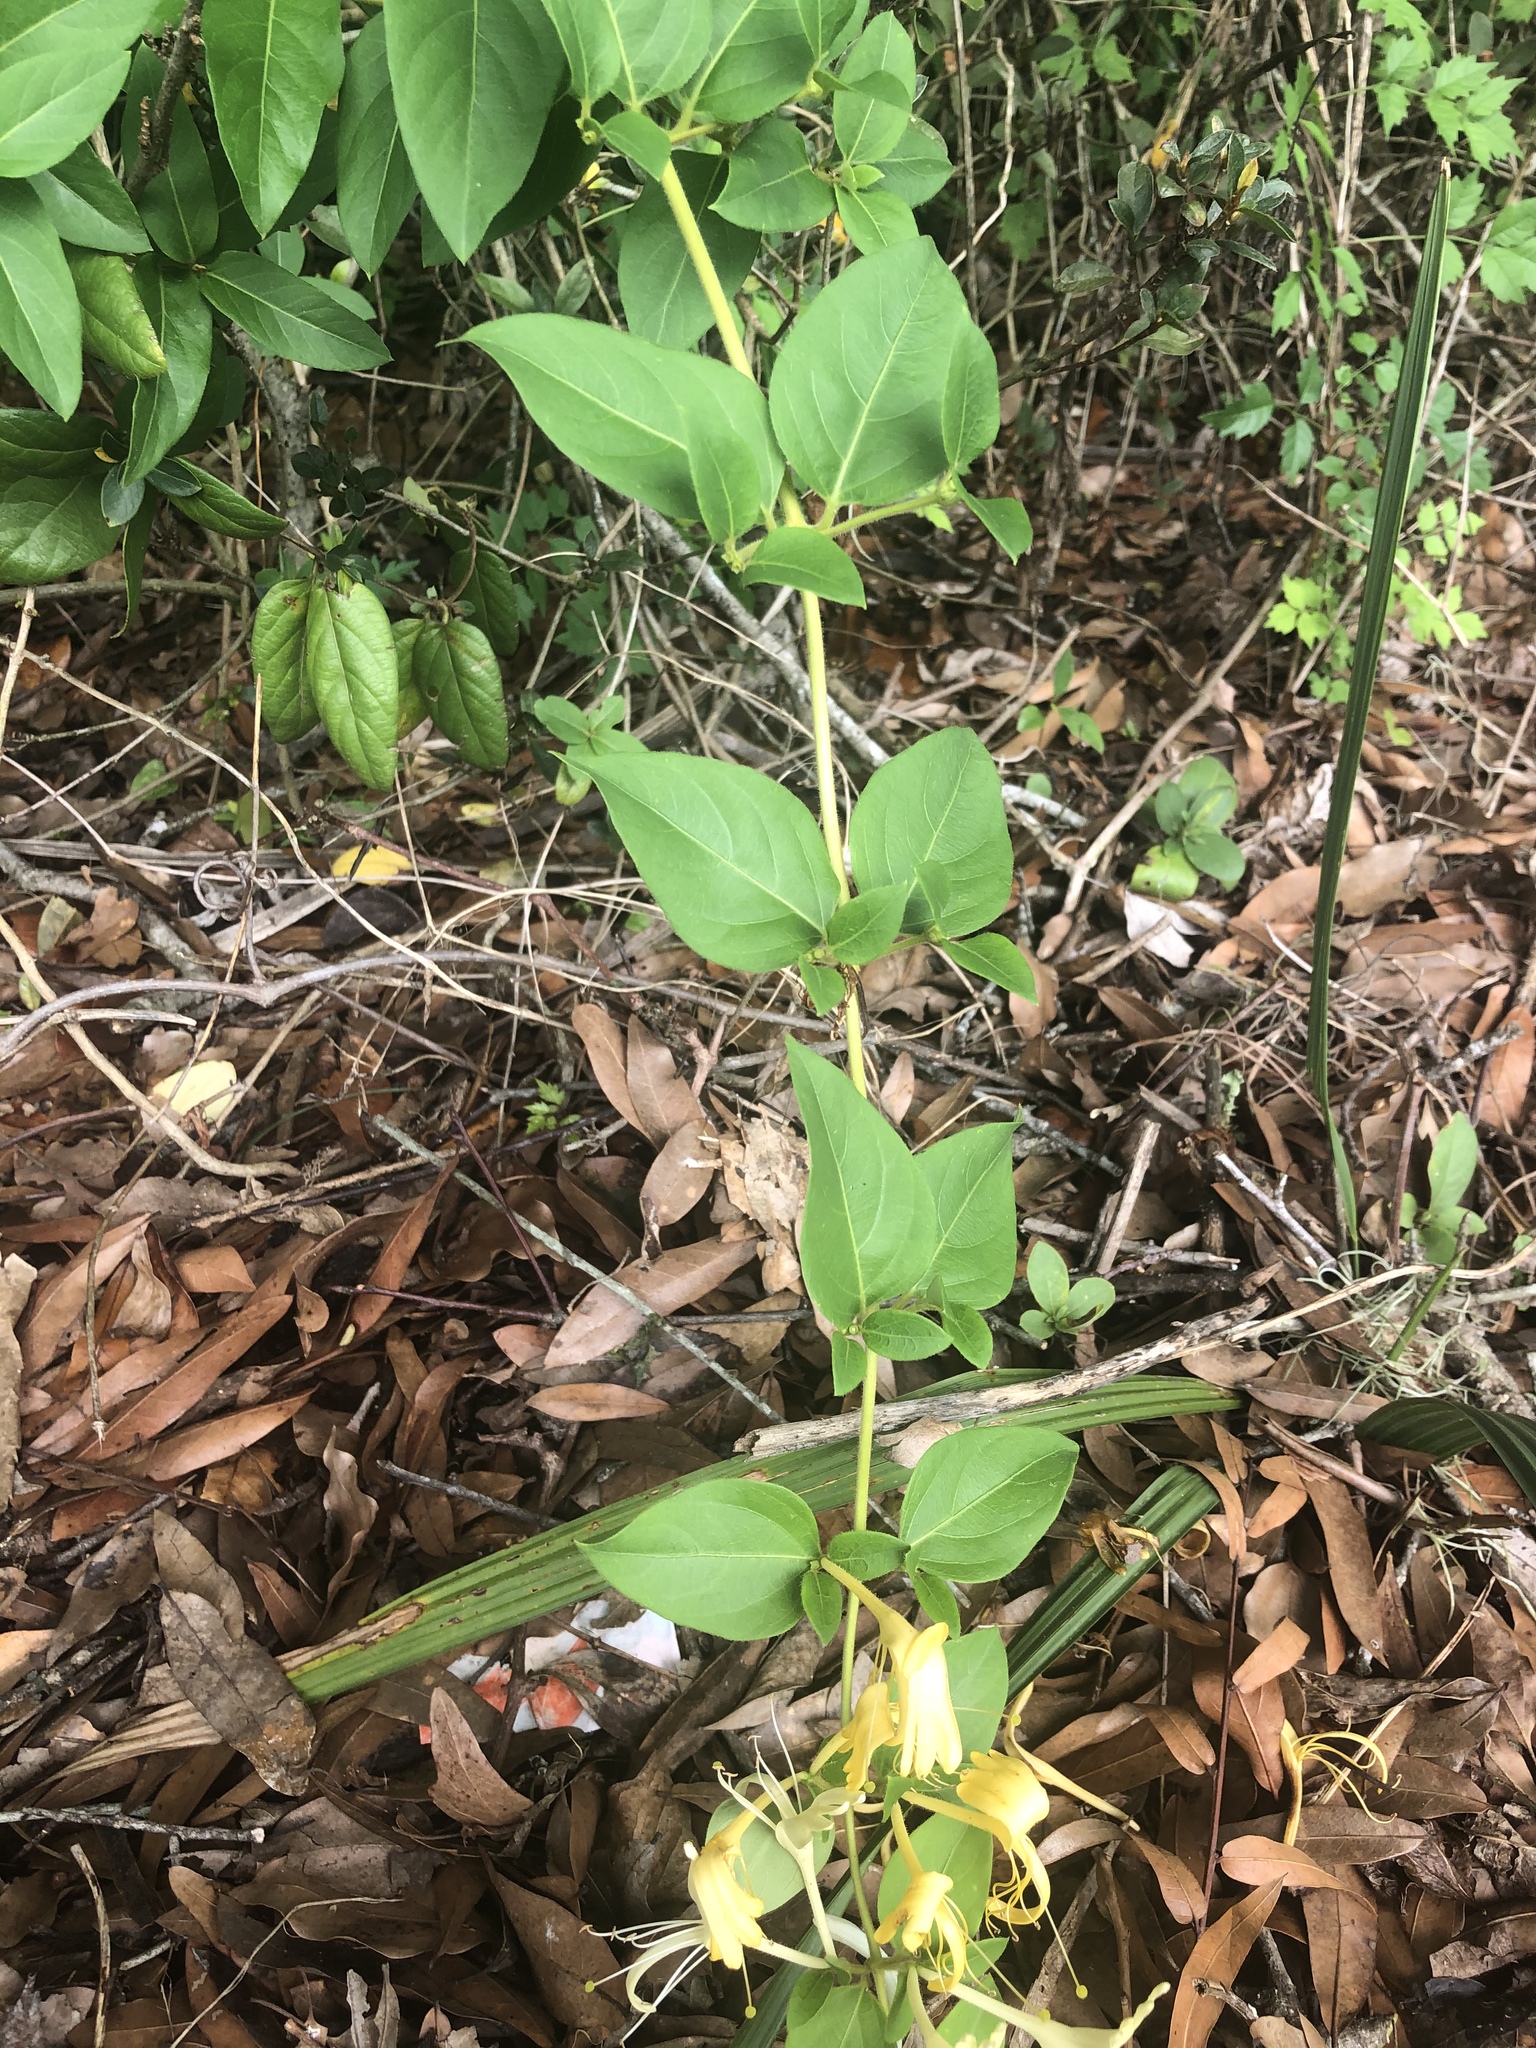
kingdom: Plantae
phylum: Tracheophyta
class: Magnoliopsida
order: Dipsacales
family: Caprifoliaceae
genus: Lonicera
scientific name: Lonicera japonica
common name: Japanese honeysuckle
